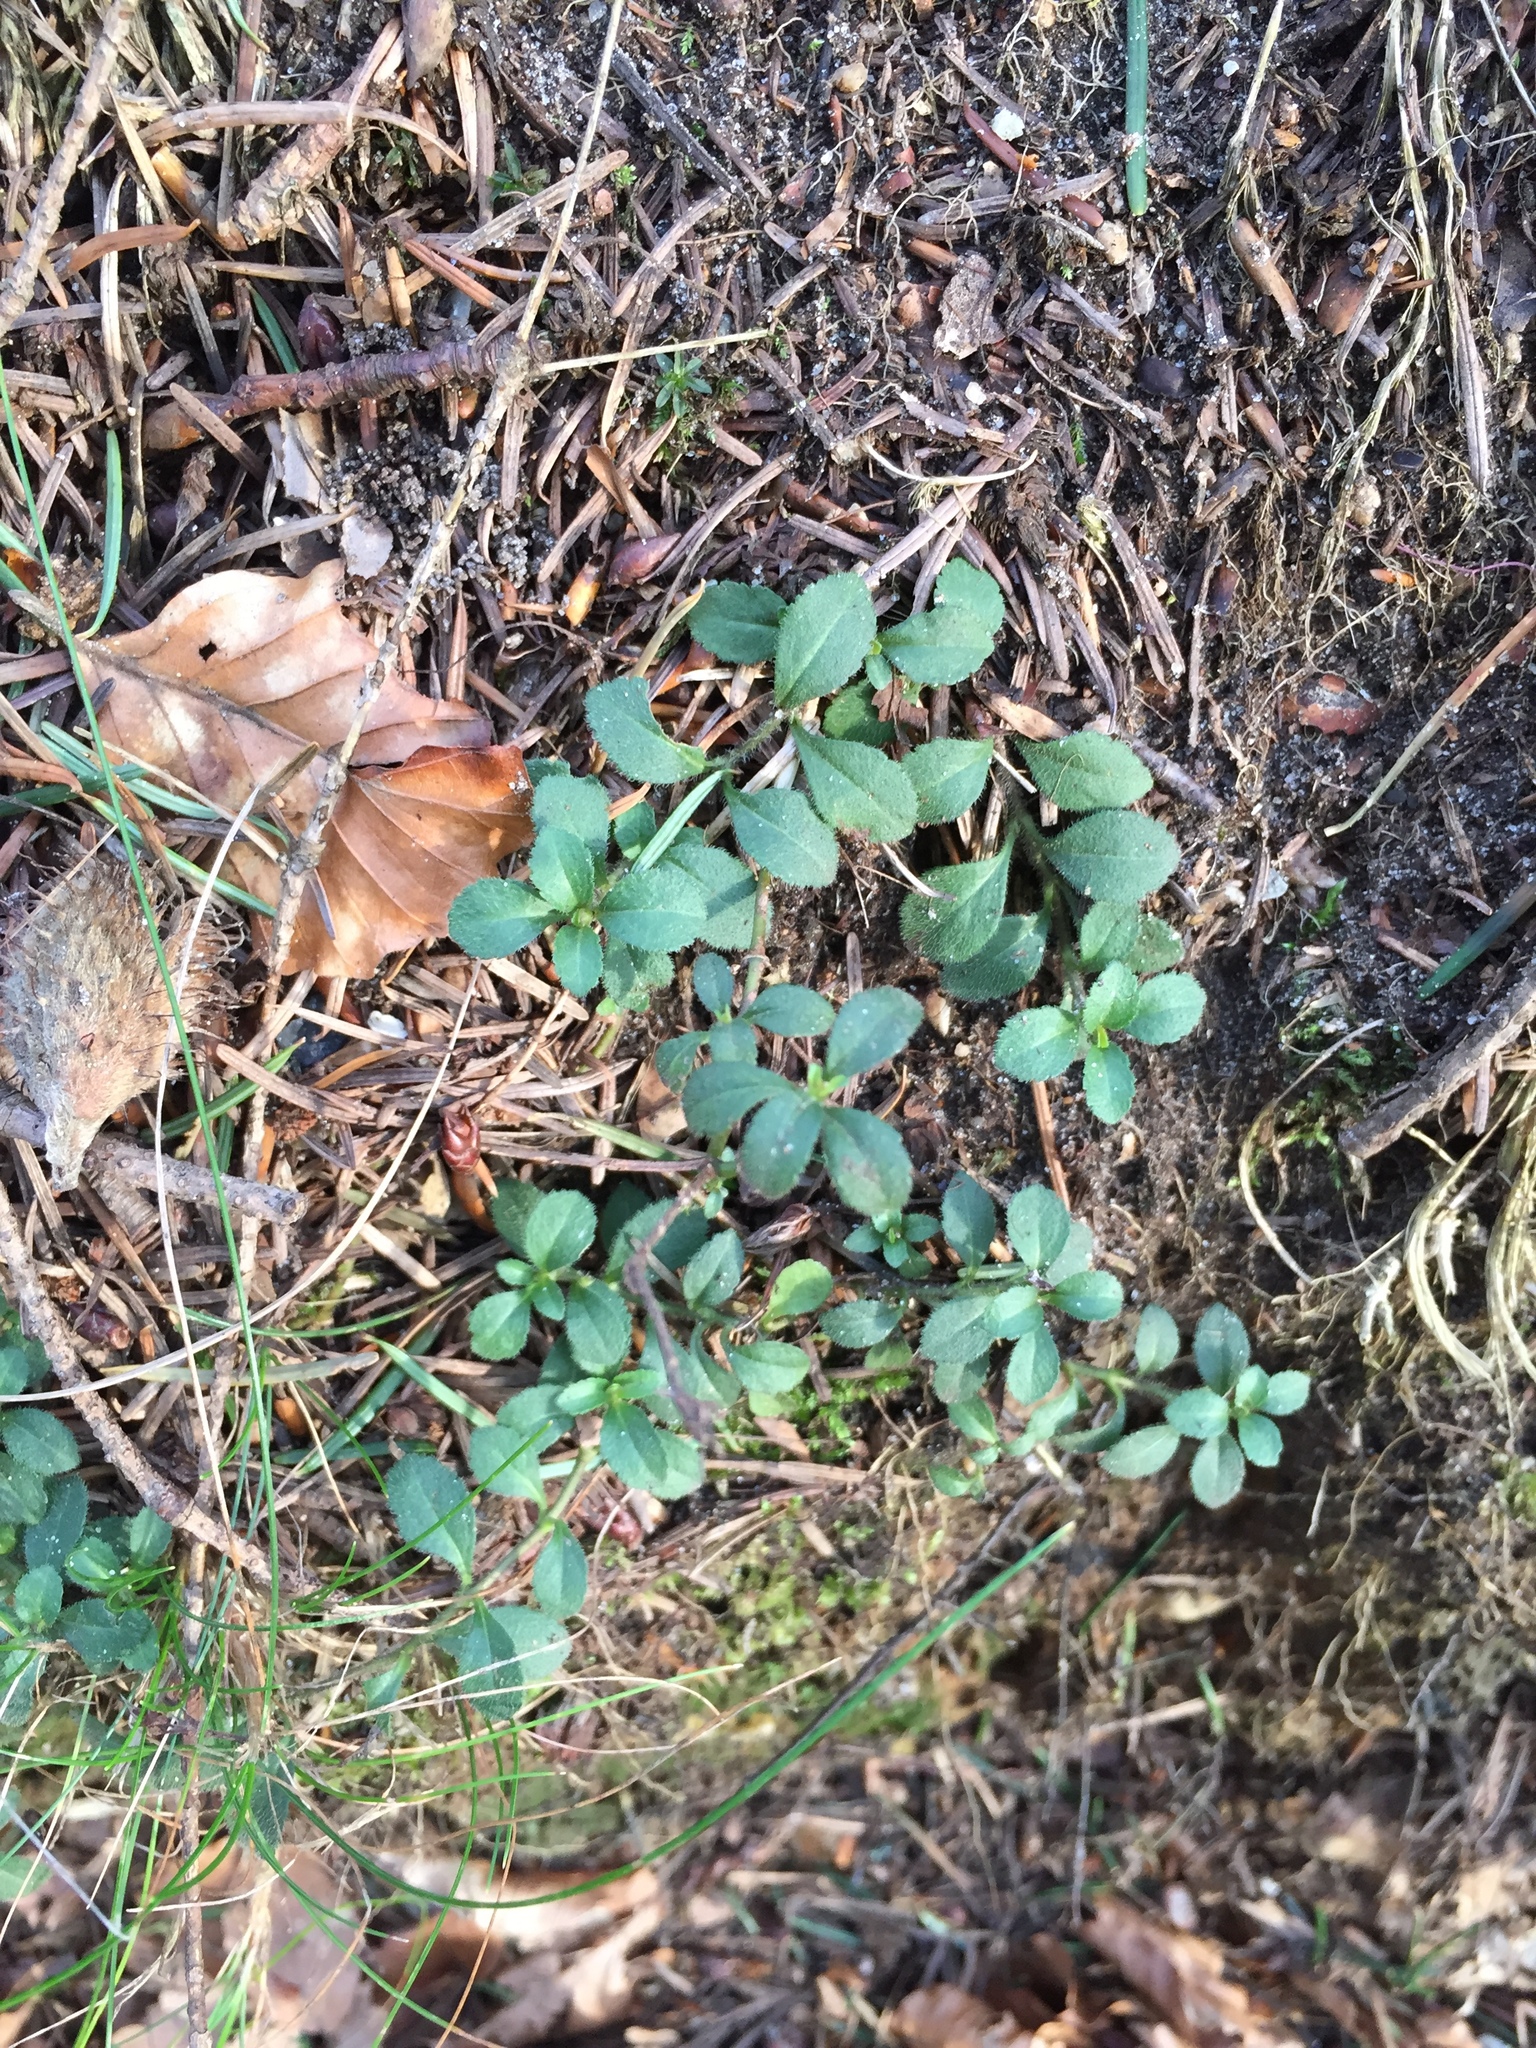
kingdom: Plantae
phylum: Tracheophyta
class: Magnoliopsida
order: Lamiales
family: Plantaginaceae
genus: Veronica
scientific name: Veronica officinalis
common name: Common speedwell
